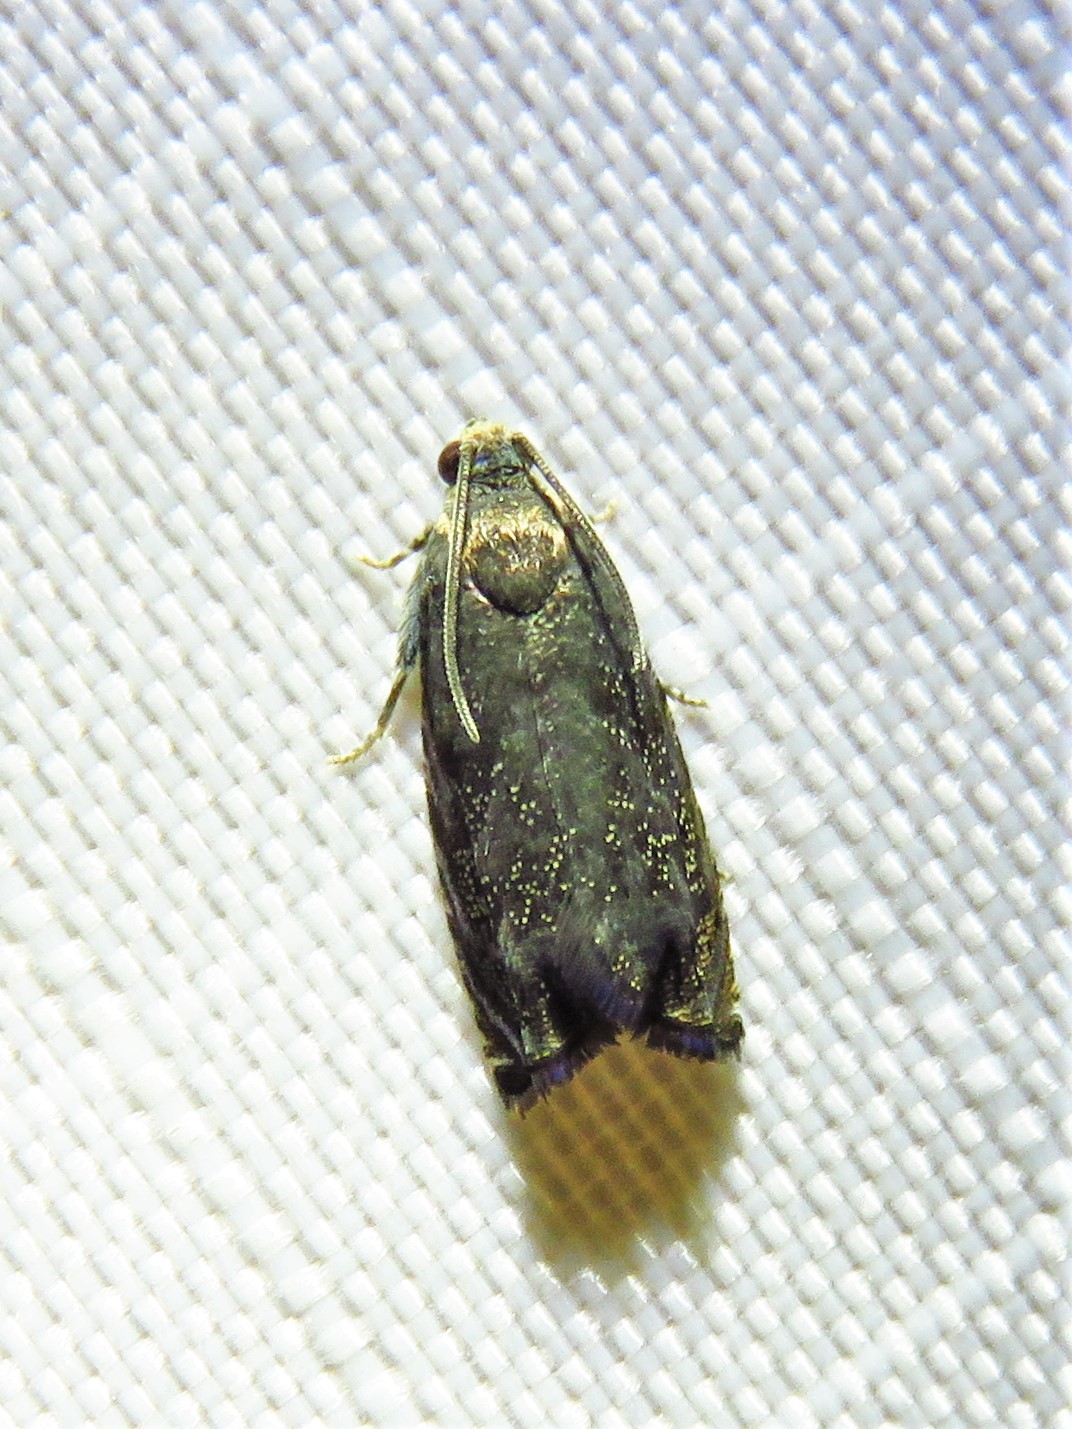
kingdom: Animalia
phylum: Arthropoda
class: Insecta
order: Lepidoptera
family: Tortricidae
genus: Cydia
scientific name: Cydia caryana
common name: Hickory shuckworm moth
